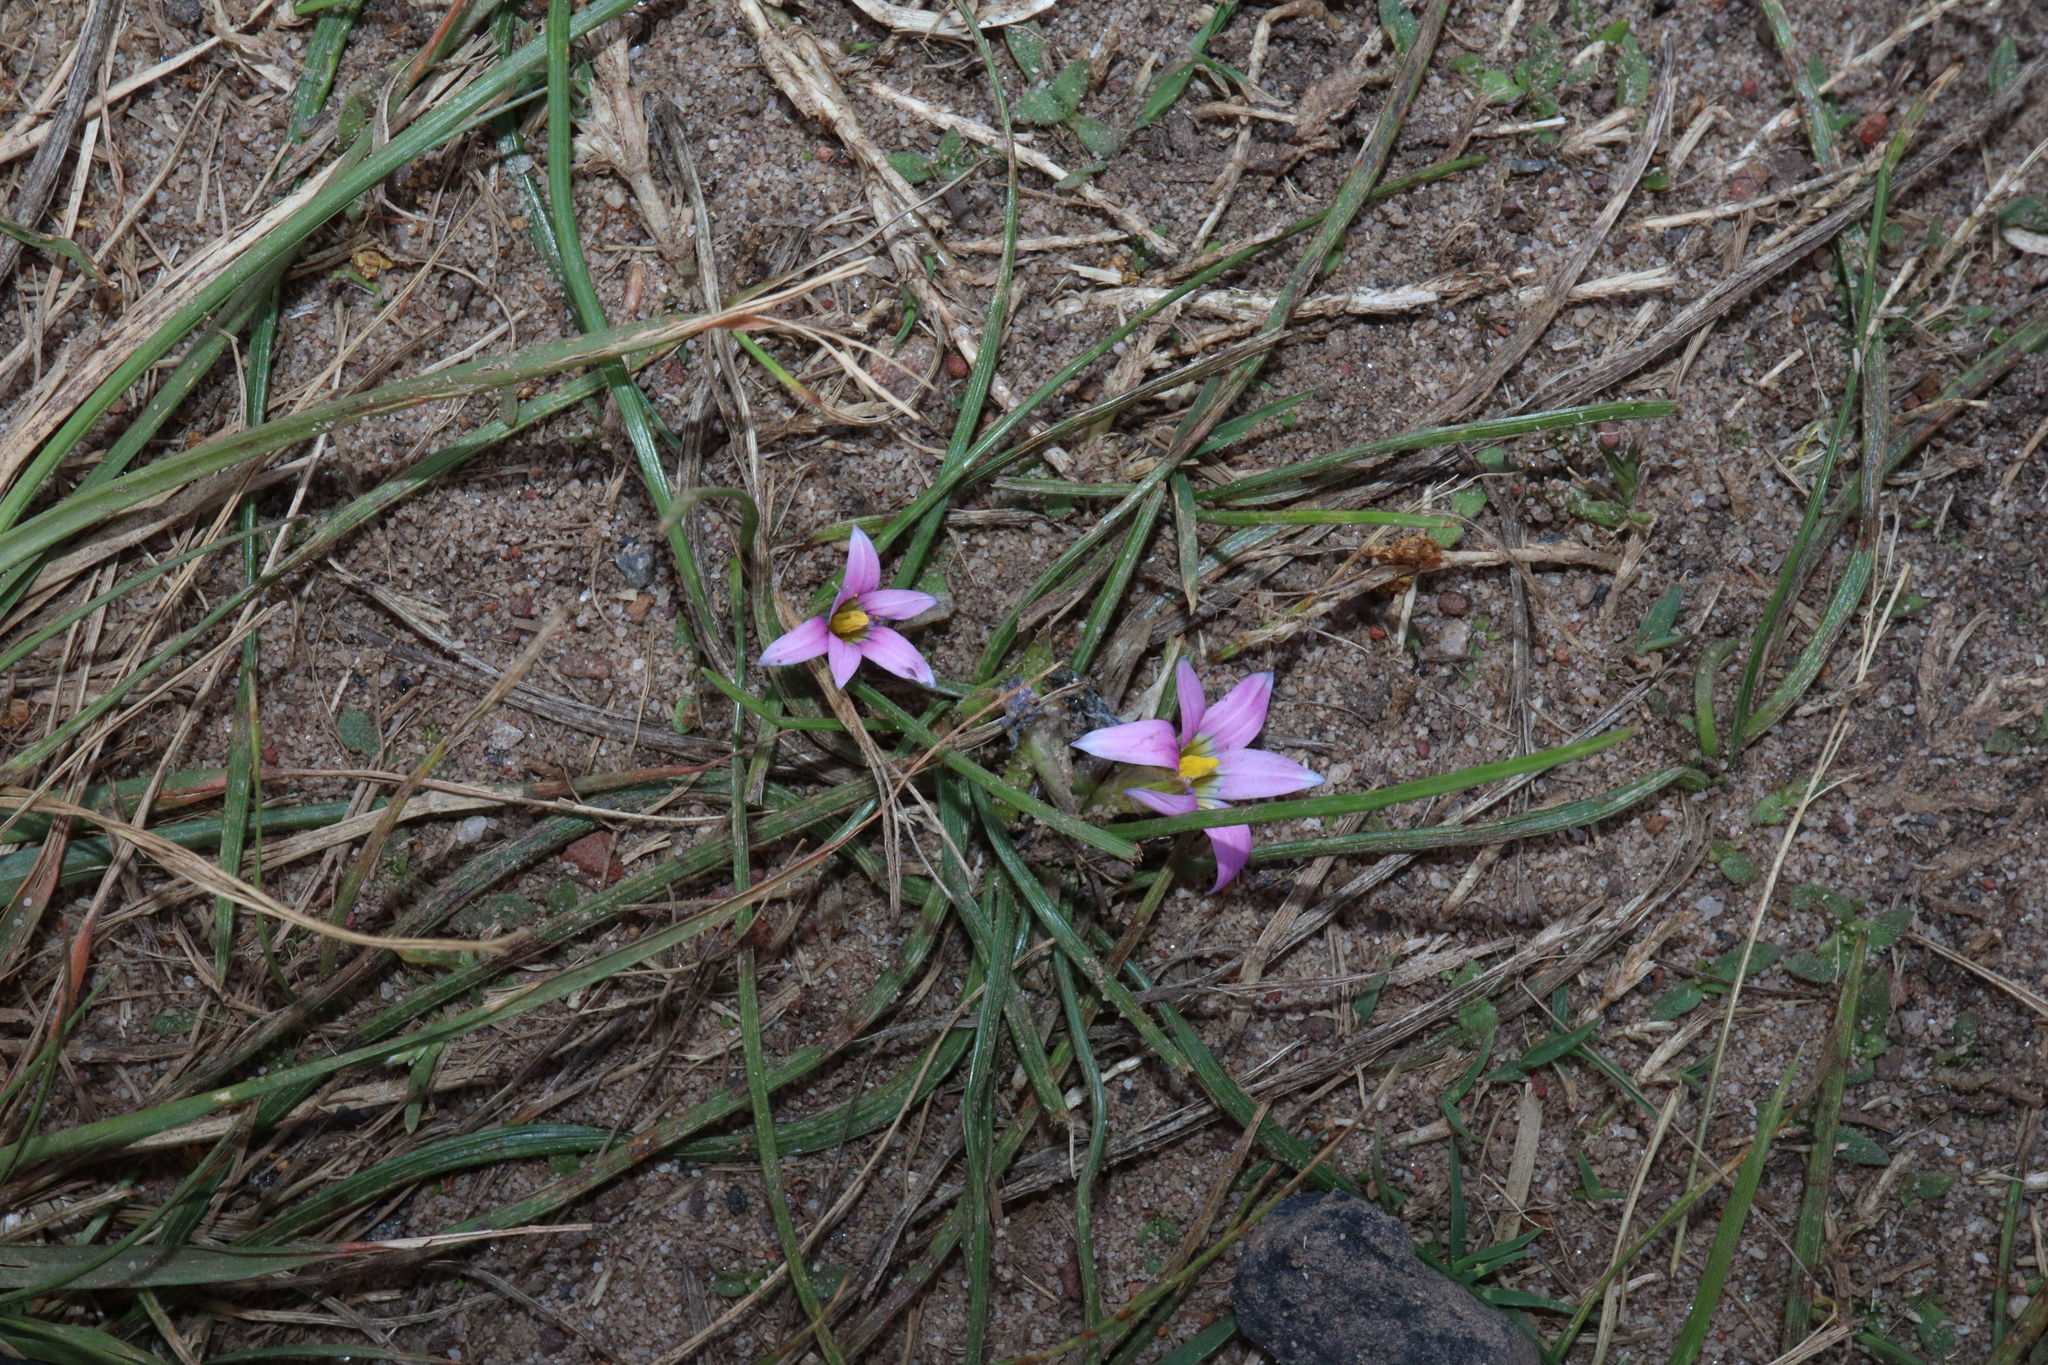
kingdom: Plantae
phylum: Tracheophyta
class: Liliopsida
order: Asparagales
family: Iridaceae
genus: Romulea
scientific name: Romulea rosea
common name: Oniongrass
